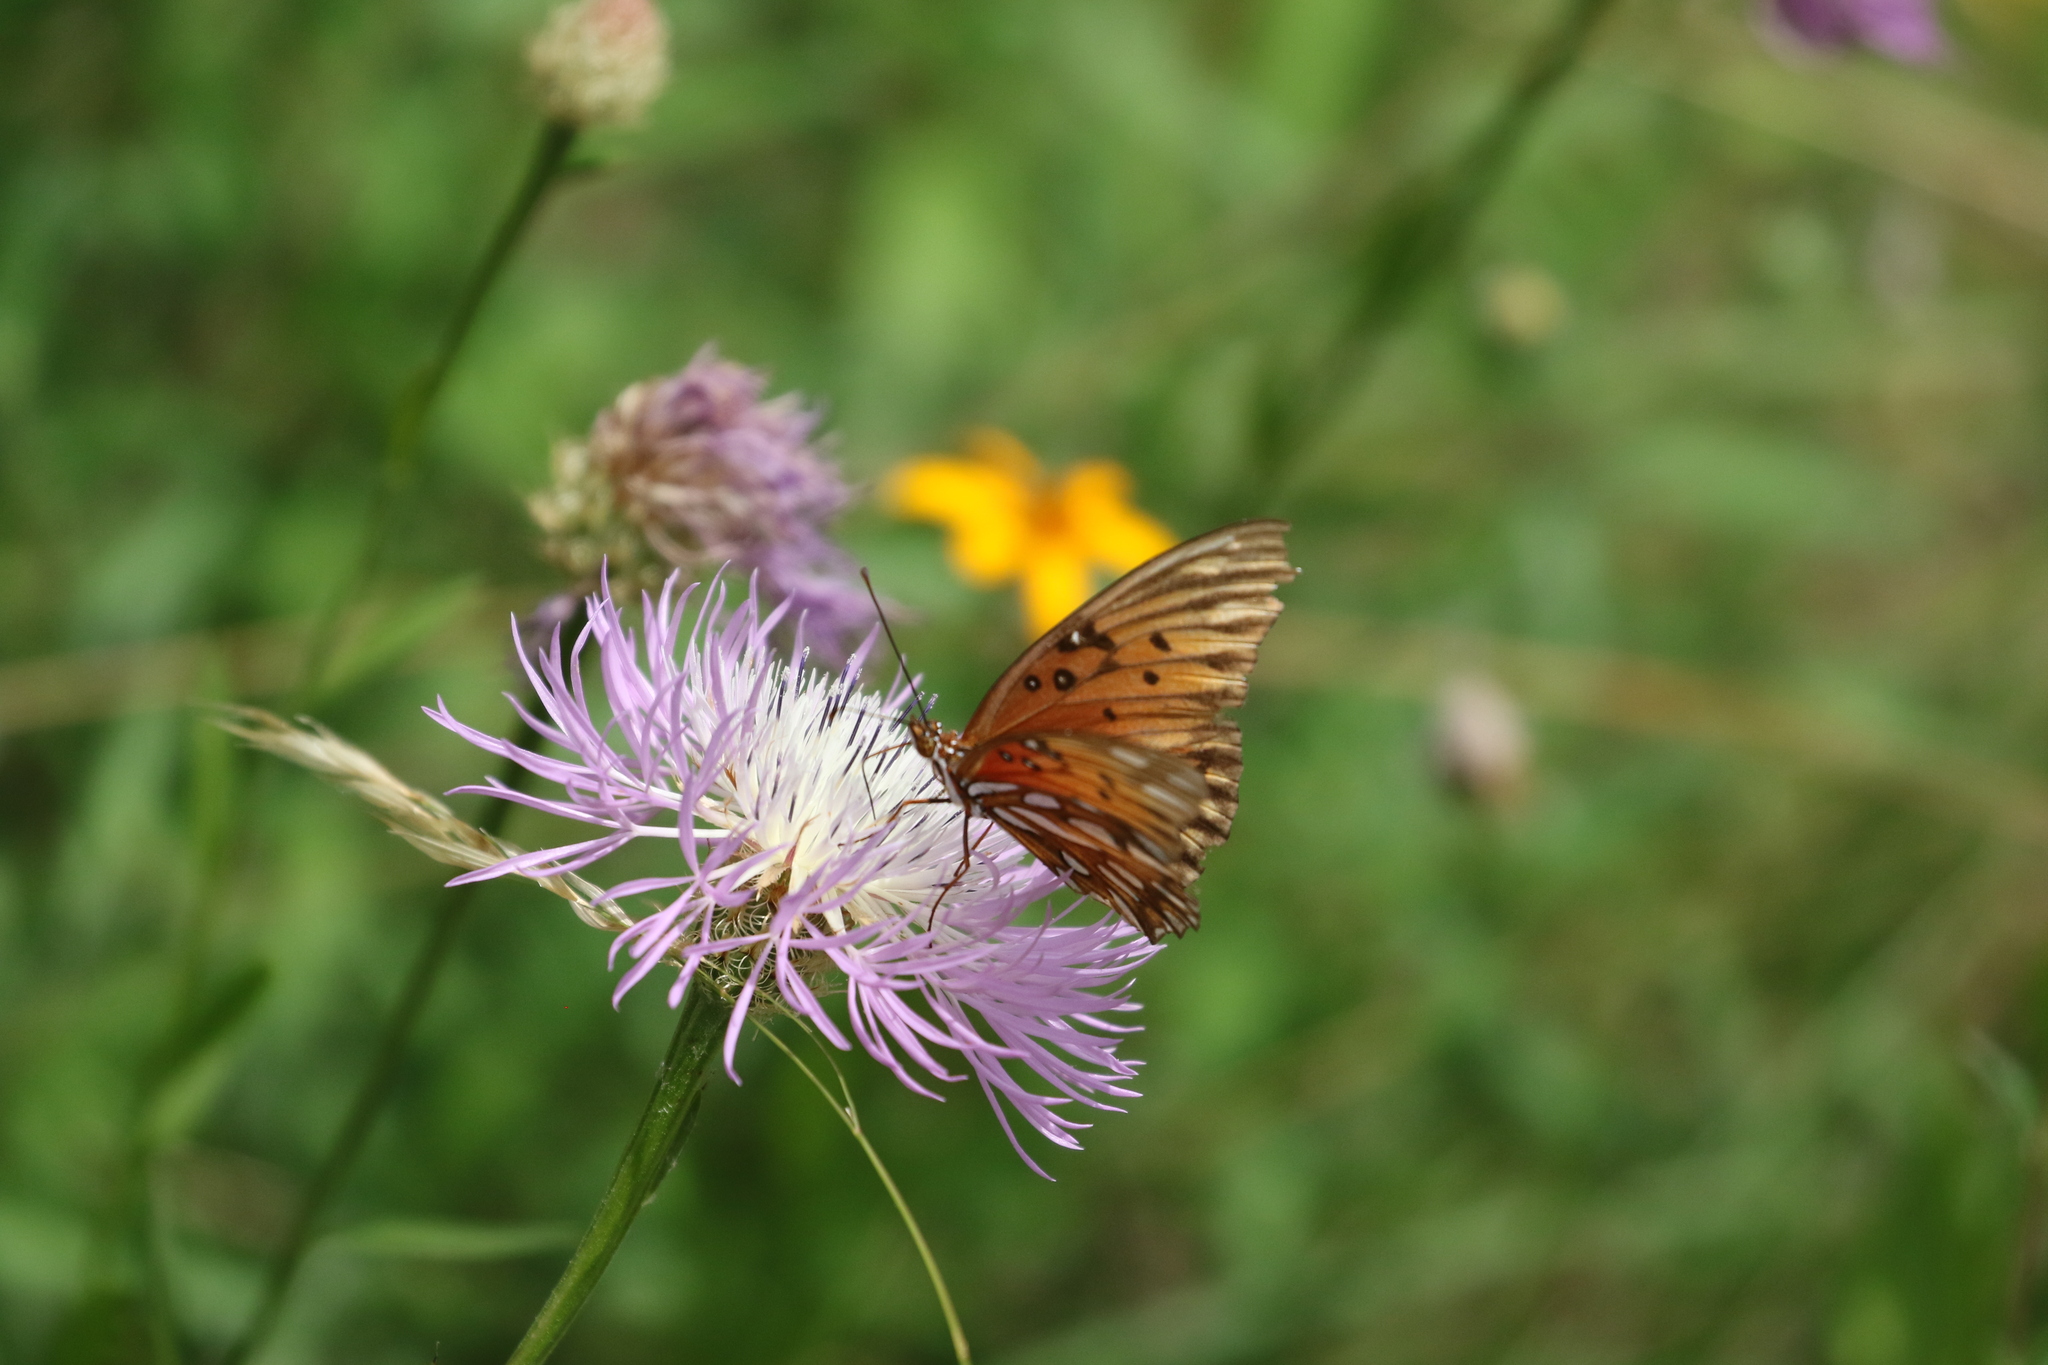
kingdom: Animalia
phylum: Arthropoda
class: Insecta
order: Lepidoptera
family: Nymphalidae
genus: Dione
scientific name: Dione vanillae
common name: Gulf fritillary
